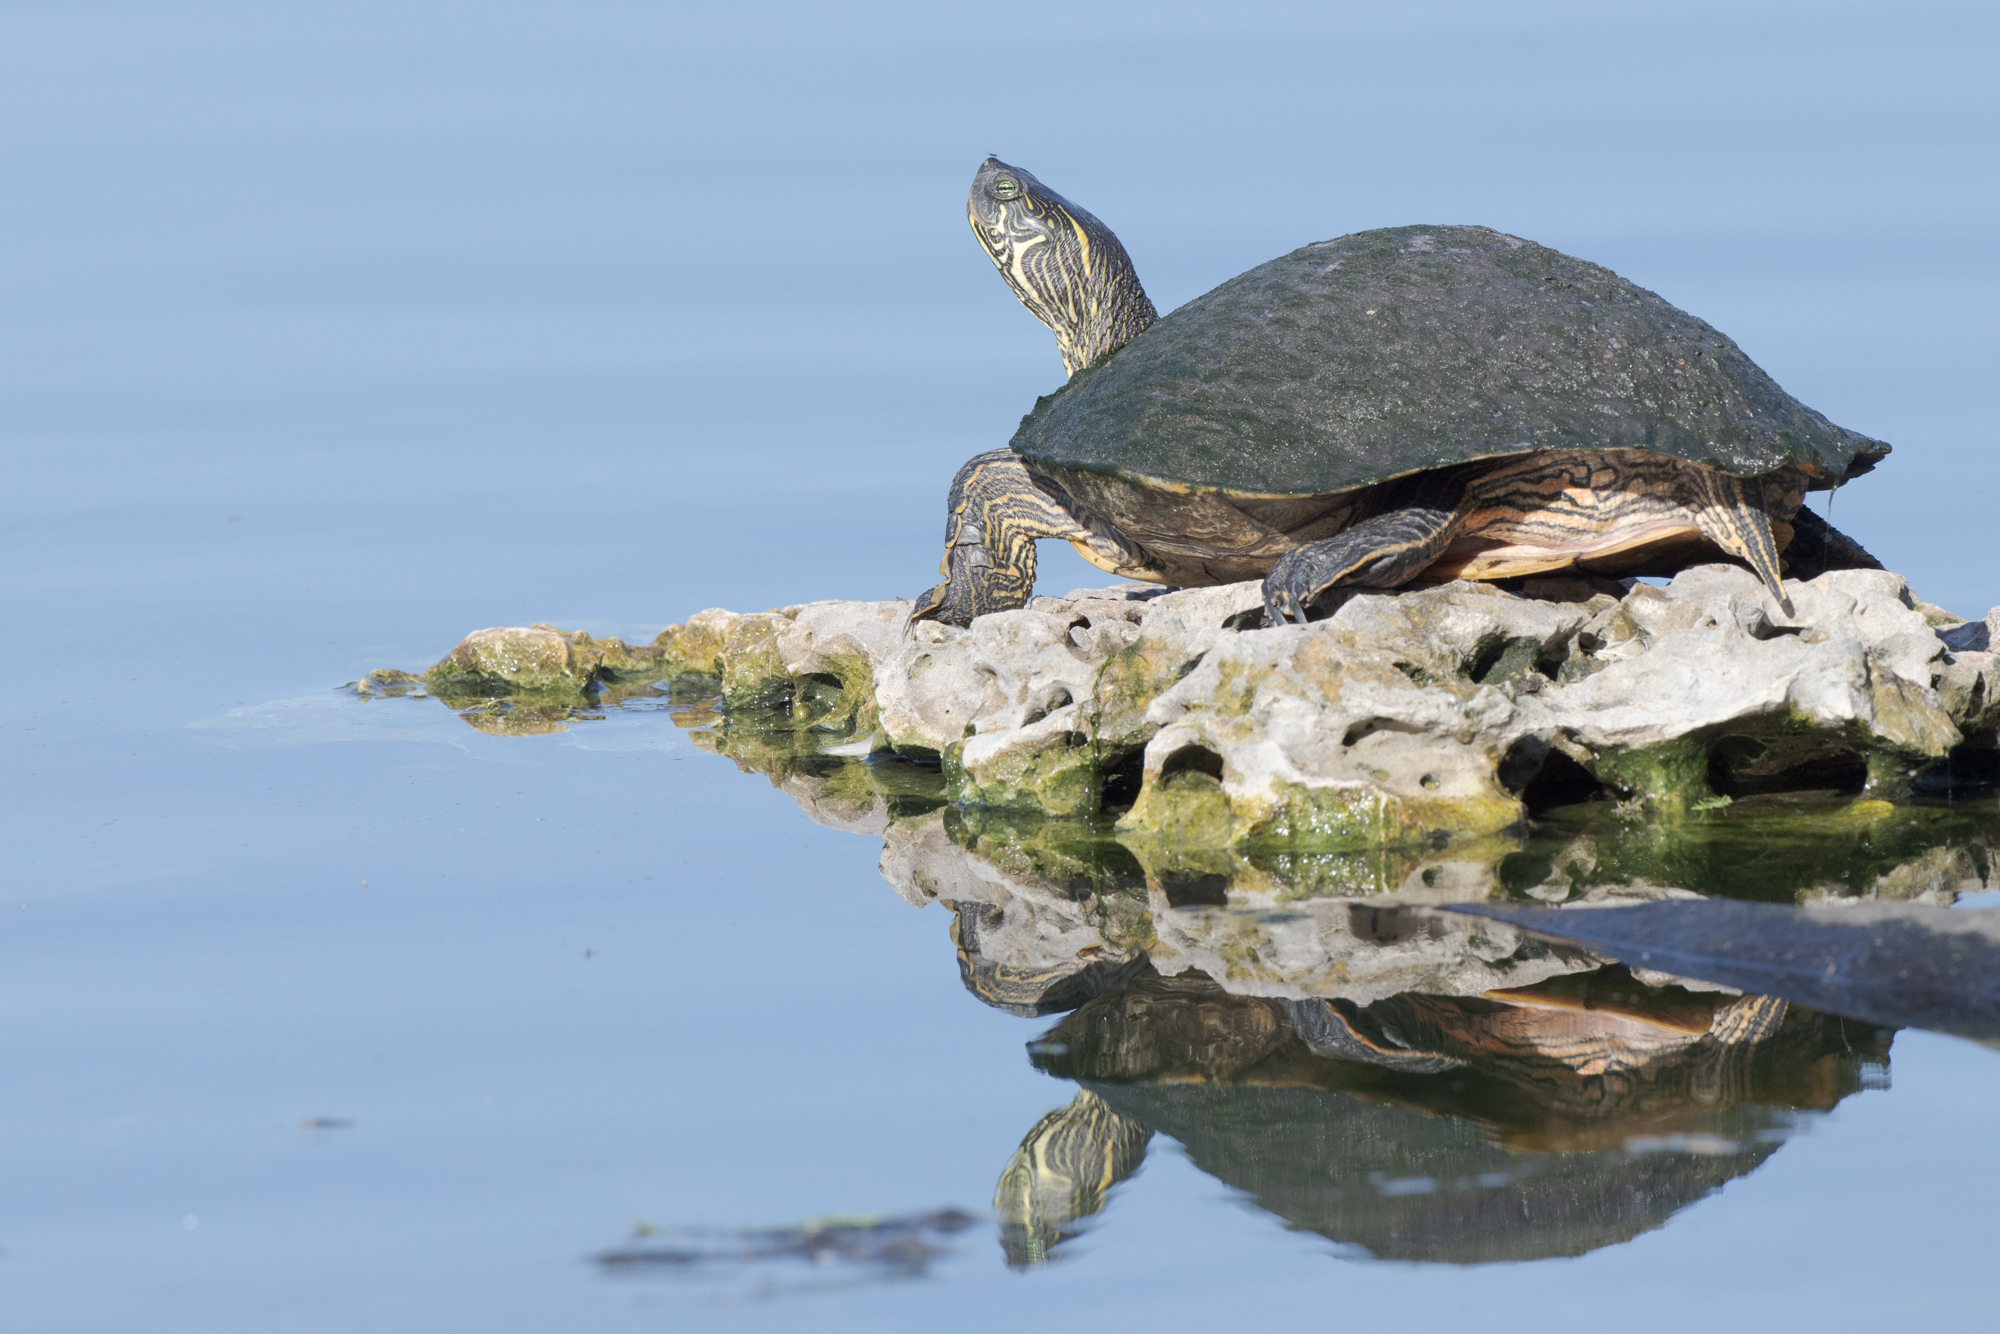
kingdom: Animalia
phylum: Chordata
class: Testudines
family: Emydidae
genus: Pseudemys
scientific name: Pseudemys texana
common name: Texas river cooter
